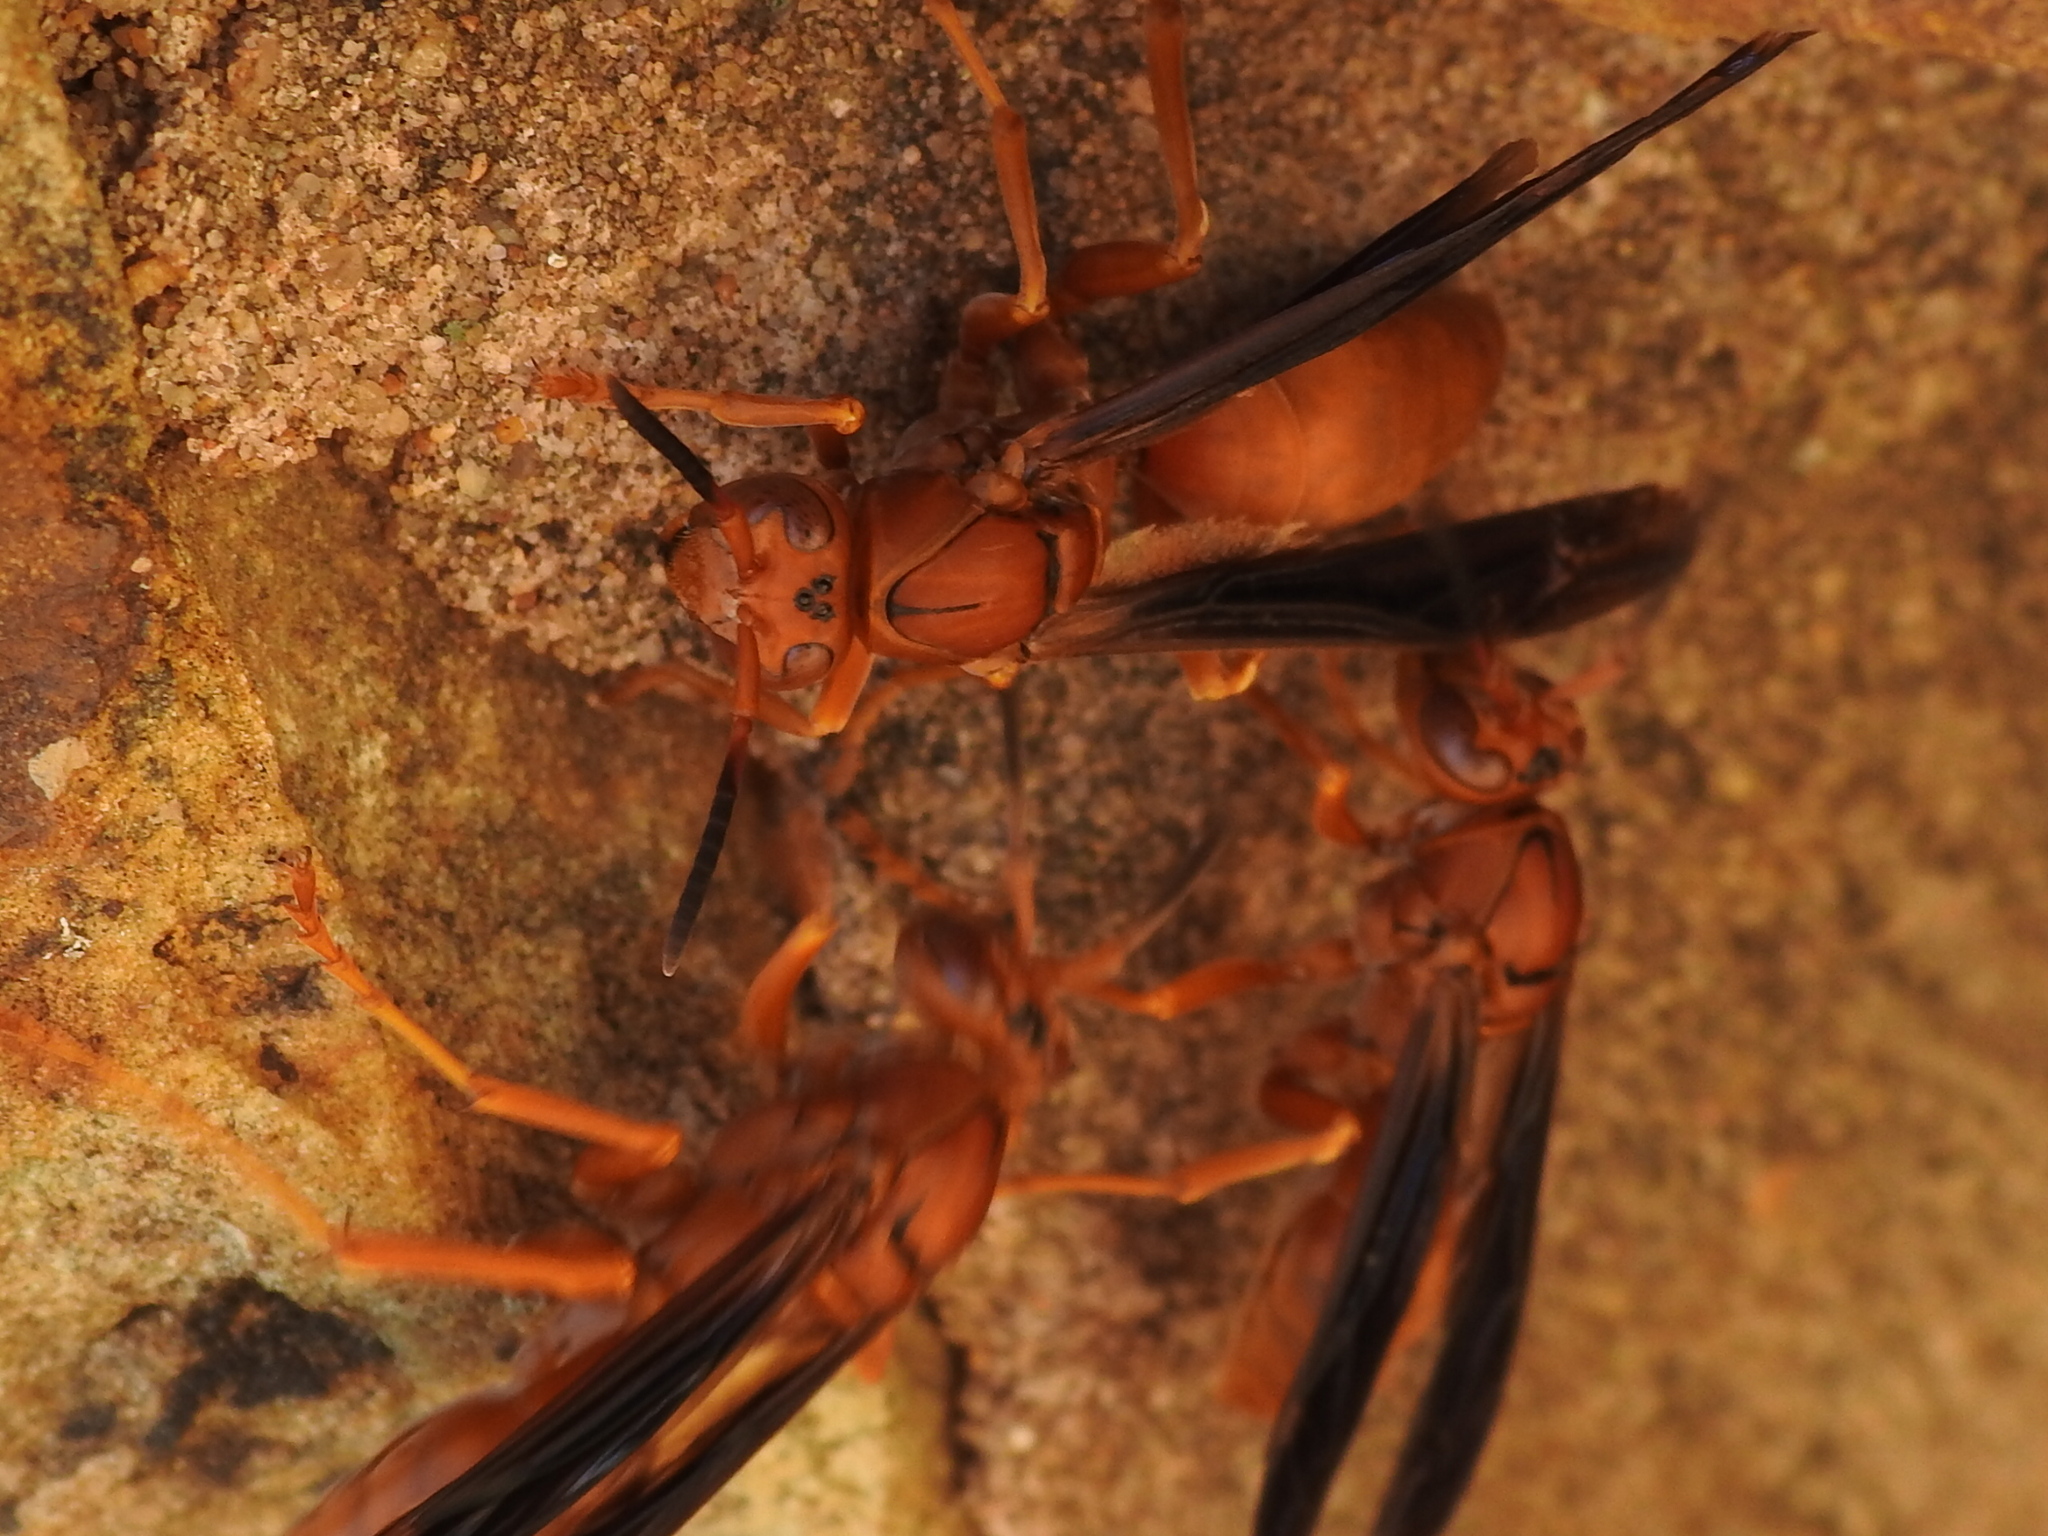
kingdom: Animalia
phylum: Arthropoda
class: Insecta
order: Hymenoptera
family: Eumenidae
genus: Polistes
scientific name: Polistes carolina
